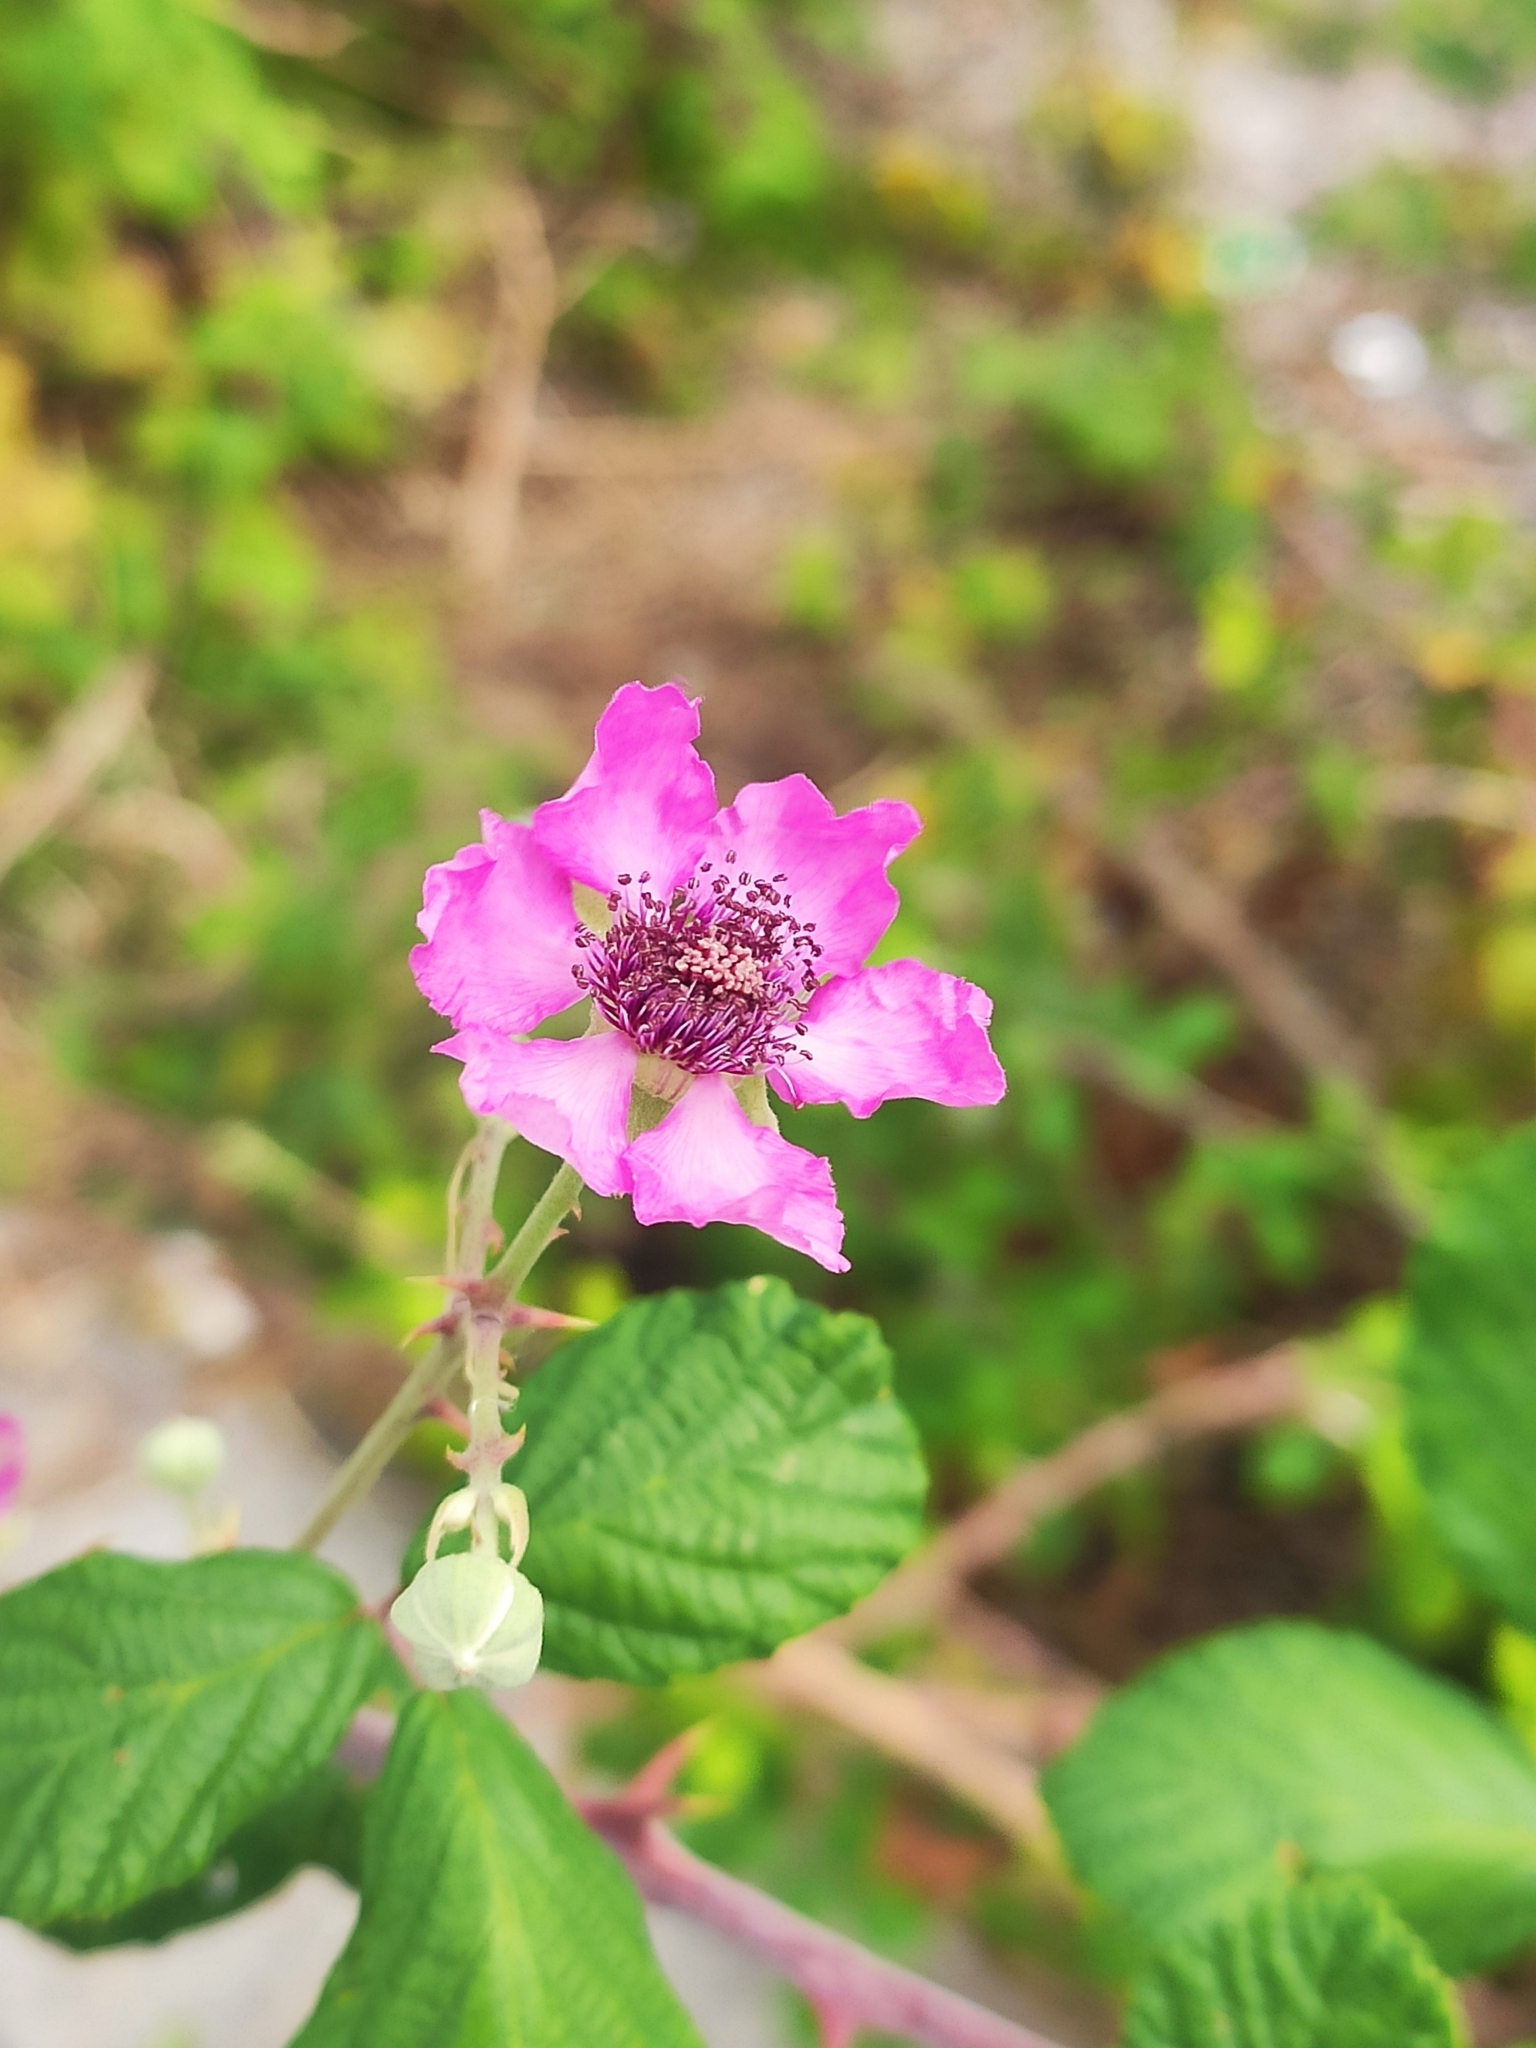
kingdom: Plantae
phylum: Tracheophyta
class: Magnoliopsida
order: Rosales
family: Rosaceae
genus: Rubus
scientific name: Rubus sanctus
